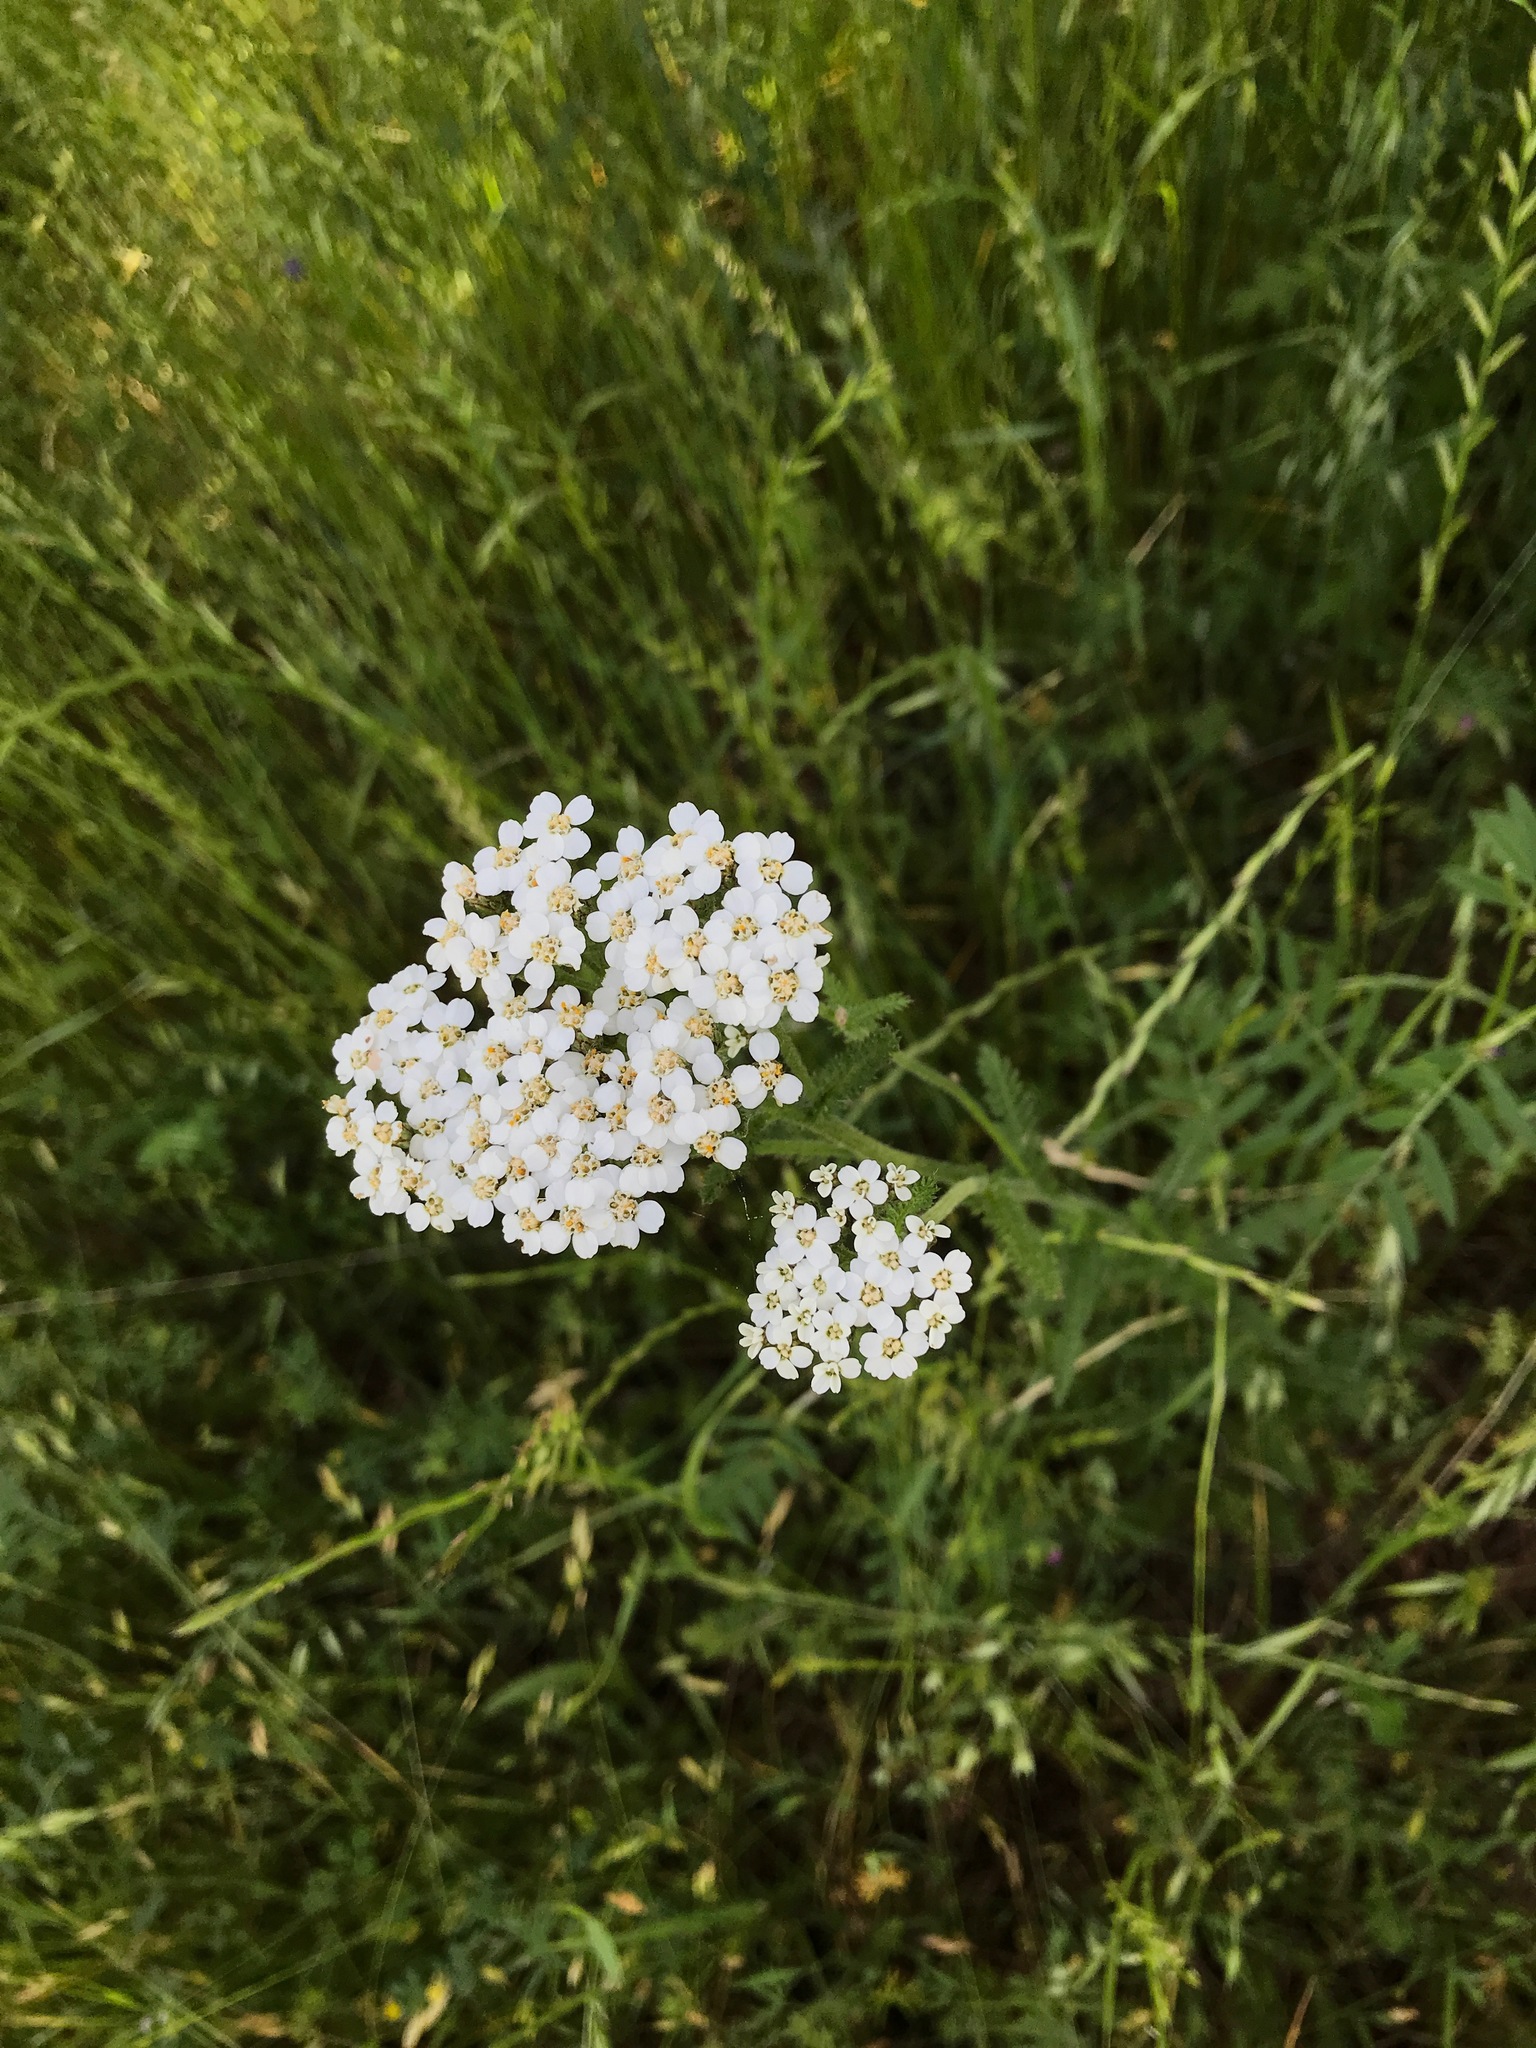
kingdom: Plantae
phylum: Tracheophyta
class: Magnoliopsida
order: Asterales
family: Asteraceae
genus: Achillea
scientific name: Achillea millefolium
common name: Yarrow
